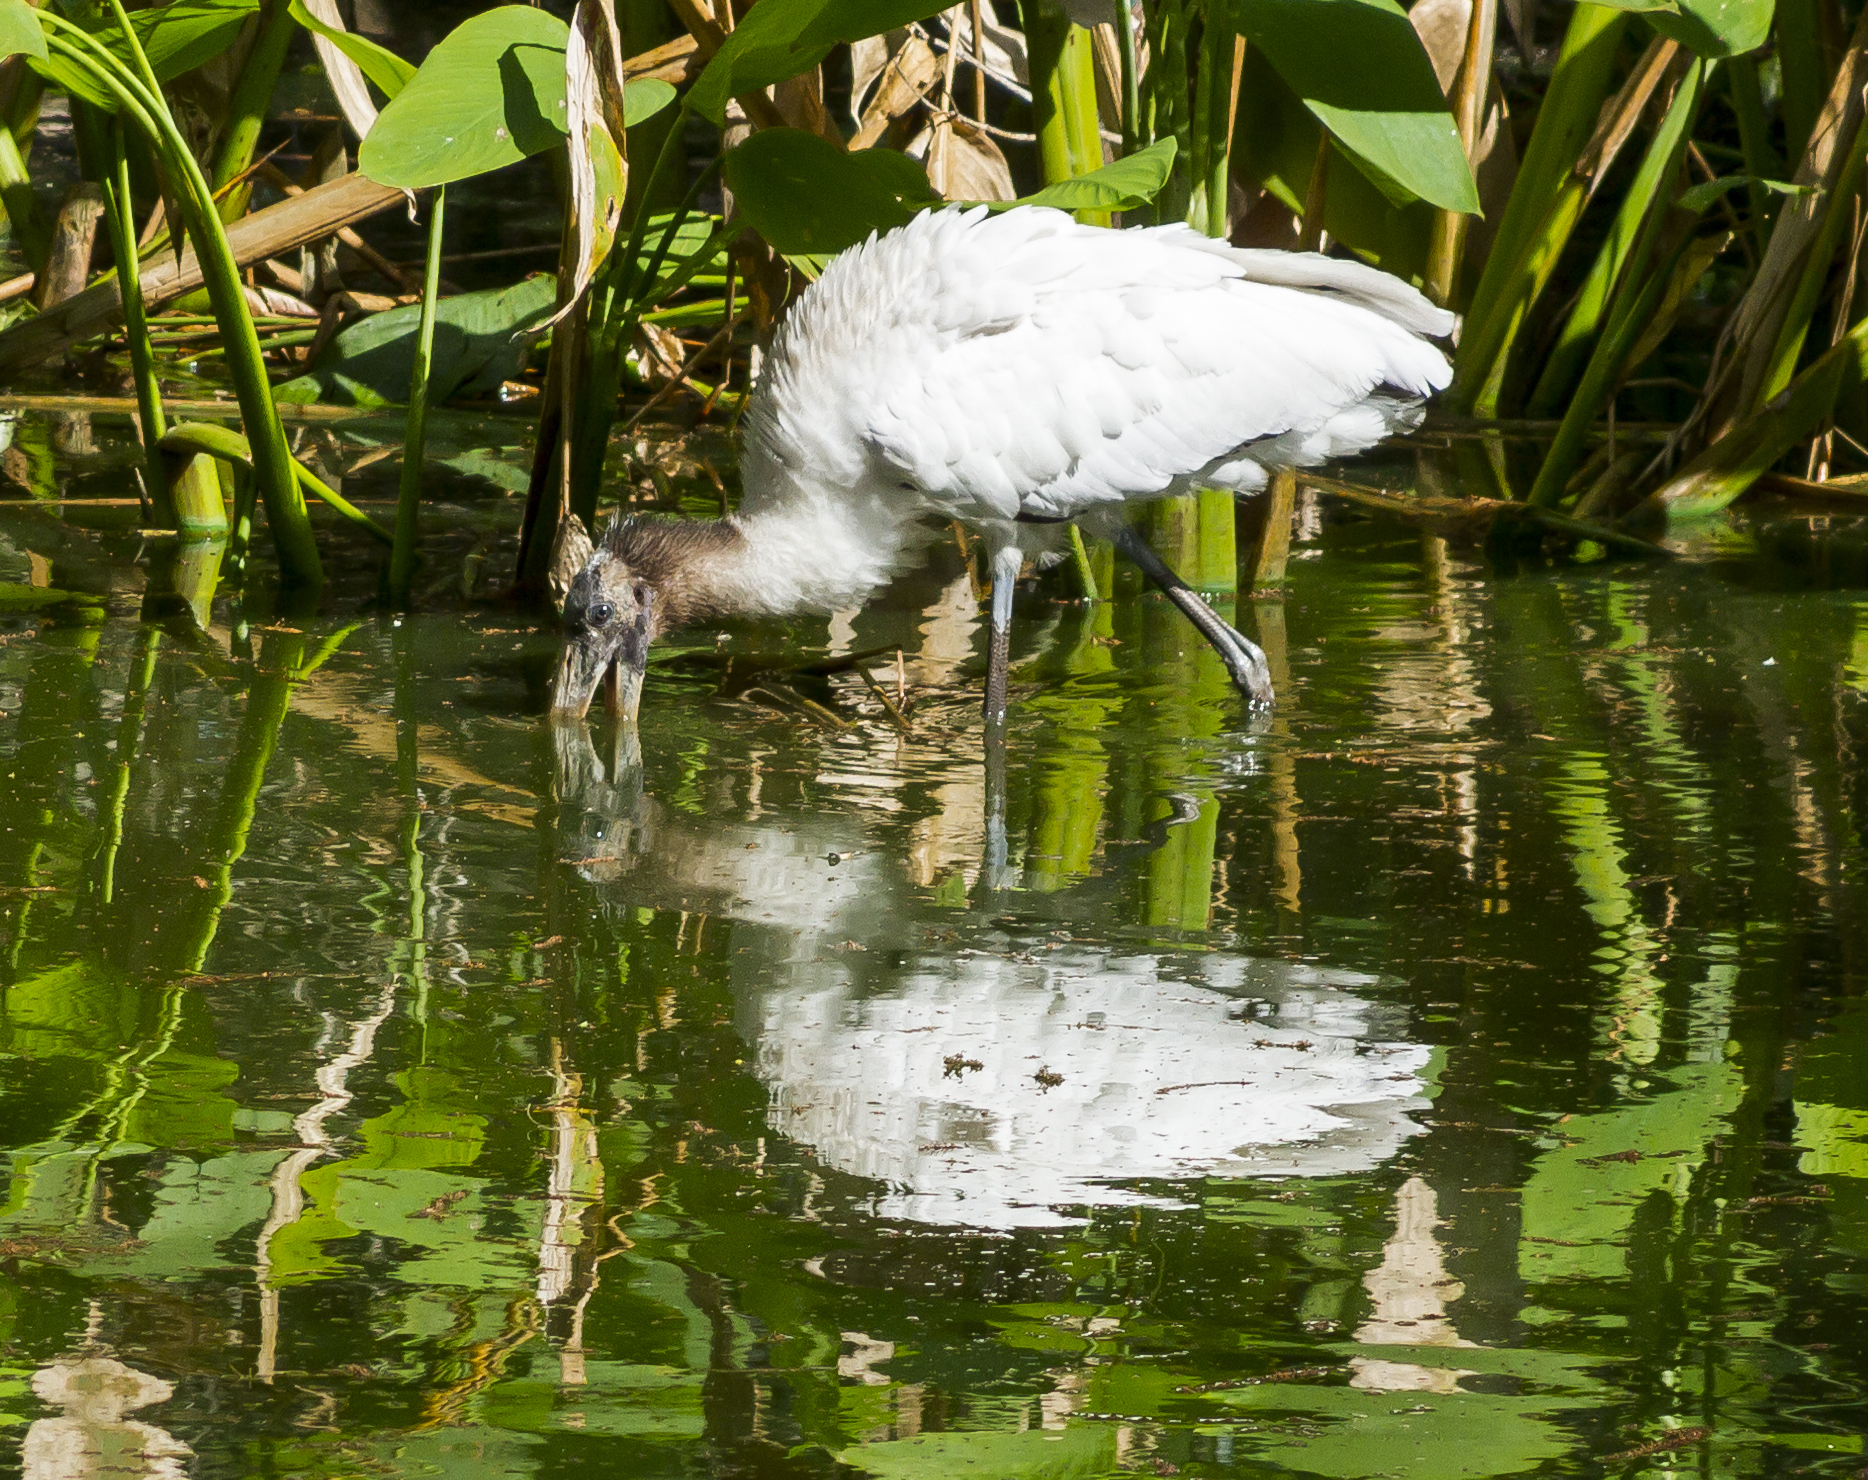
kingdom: Animalia
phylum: Chordata
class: Aves
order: Ciconiiformes
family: Ciconiidae
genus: Mycteria
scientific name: Mycteria americana
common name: Wood stork
